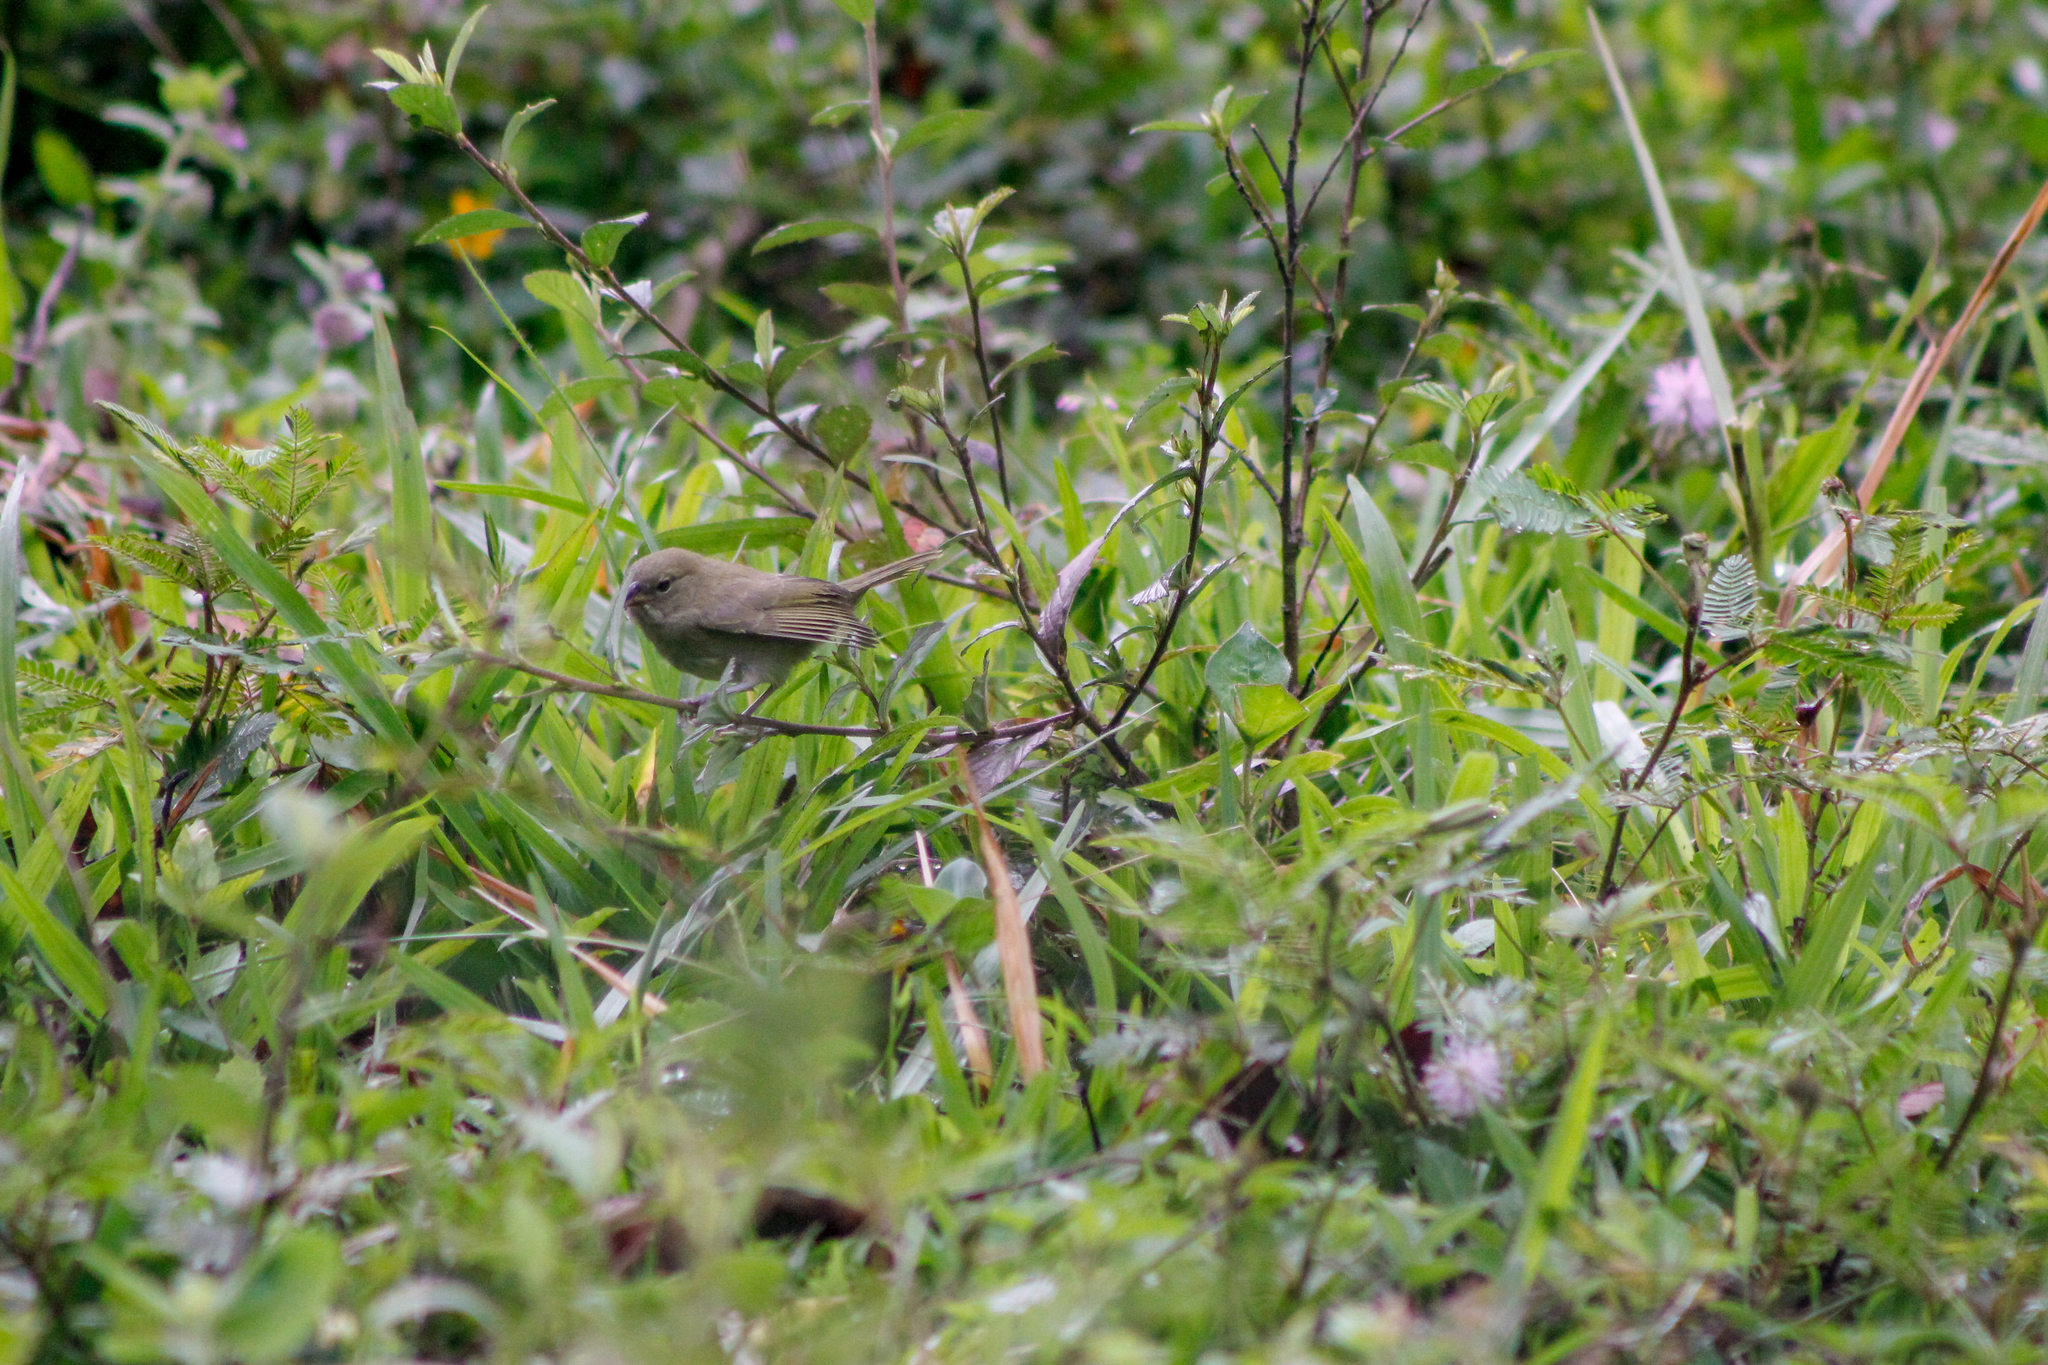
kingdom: Animalia
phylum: Chordata
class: Aves
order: Passeriformes
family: Thraupidae
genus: Tiaris
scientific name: Tiaris olivaceus
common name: Yellow-faced grassquit
